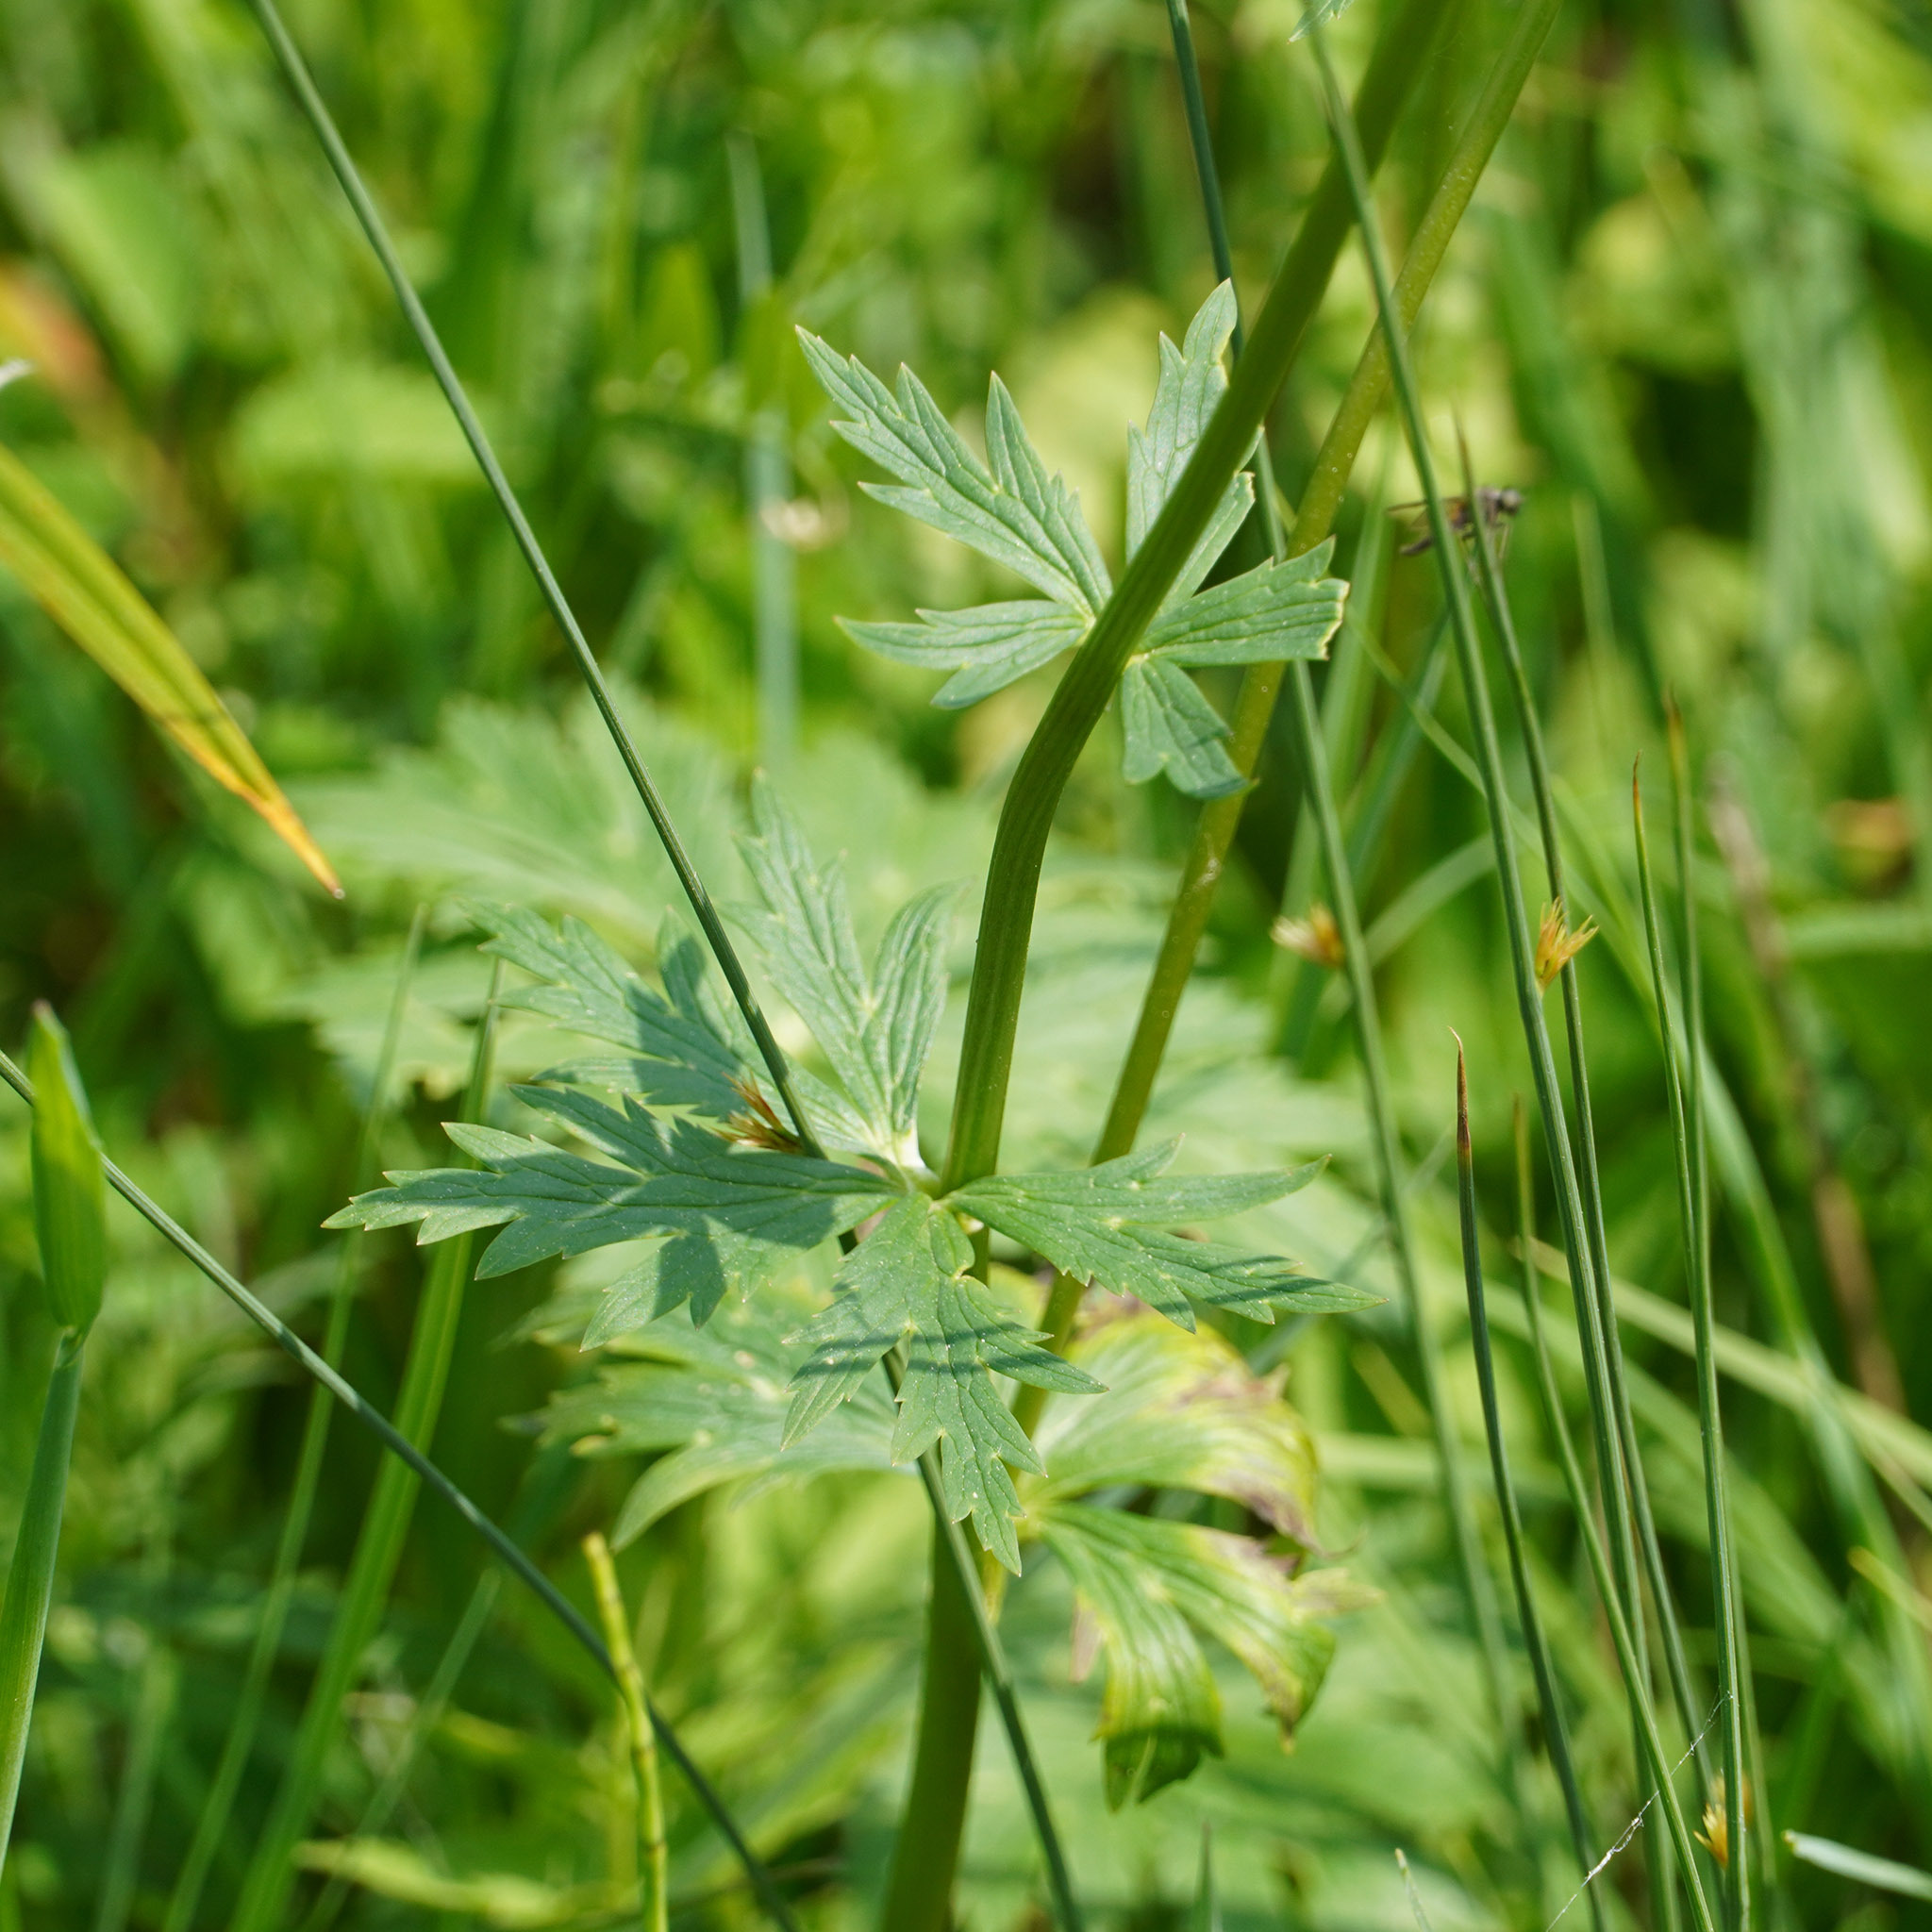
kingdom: Plantae
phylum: Tracheophyta
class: Magnoliopsida
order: Ranunculales
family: Ranunculaceae
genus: Trollius
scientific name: Trollius europaeus
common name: European globeflower
